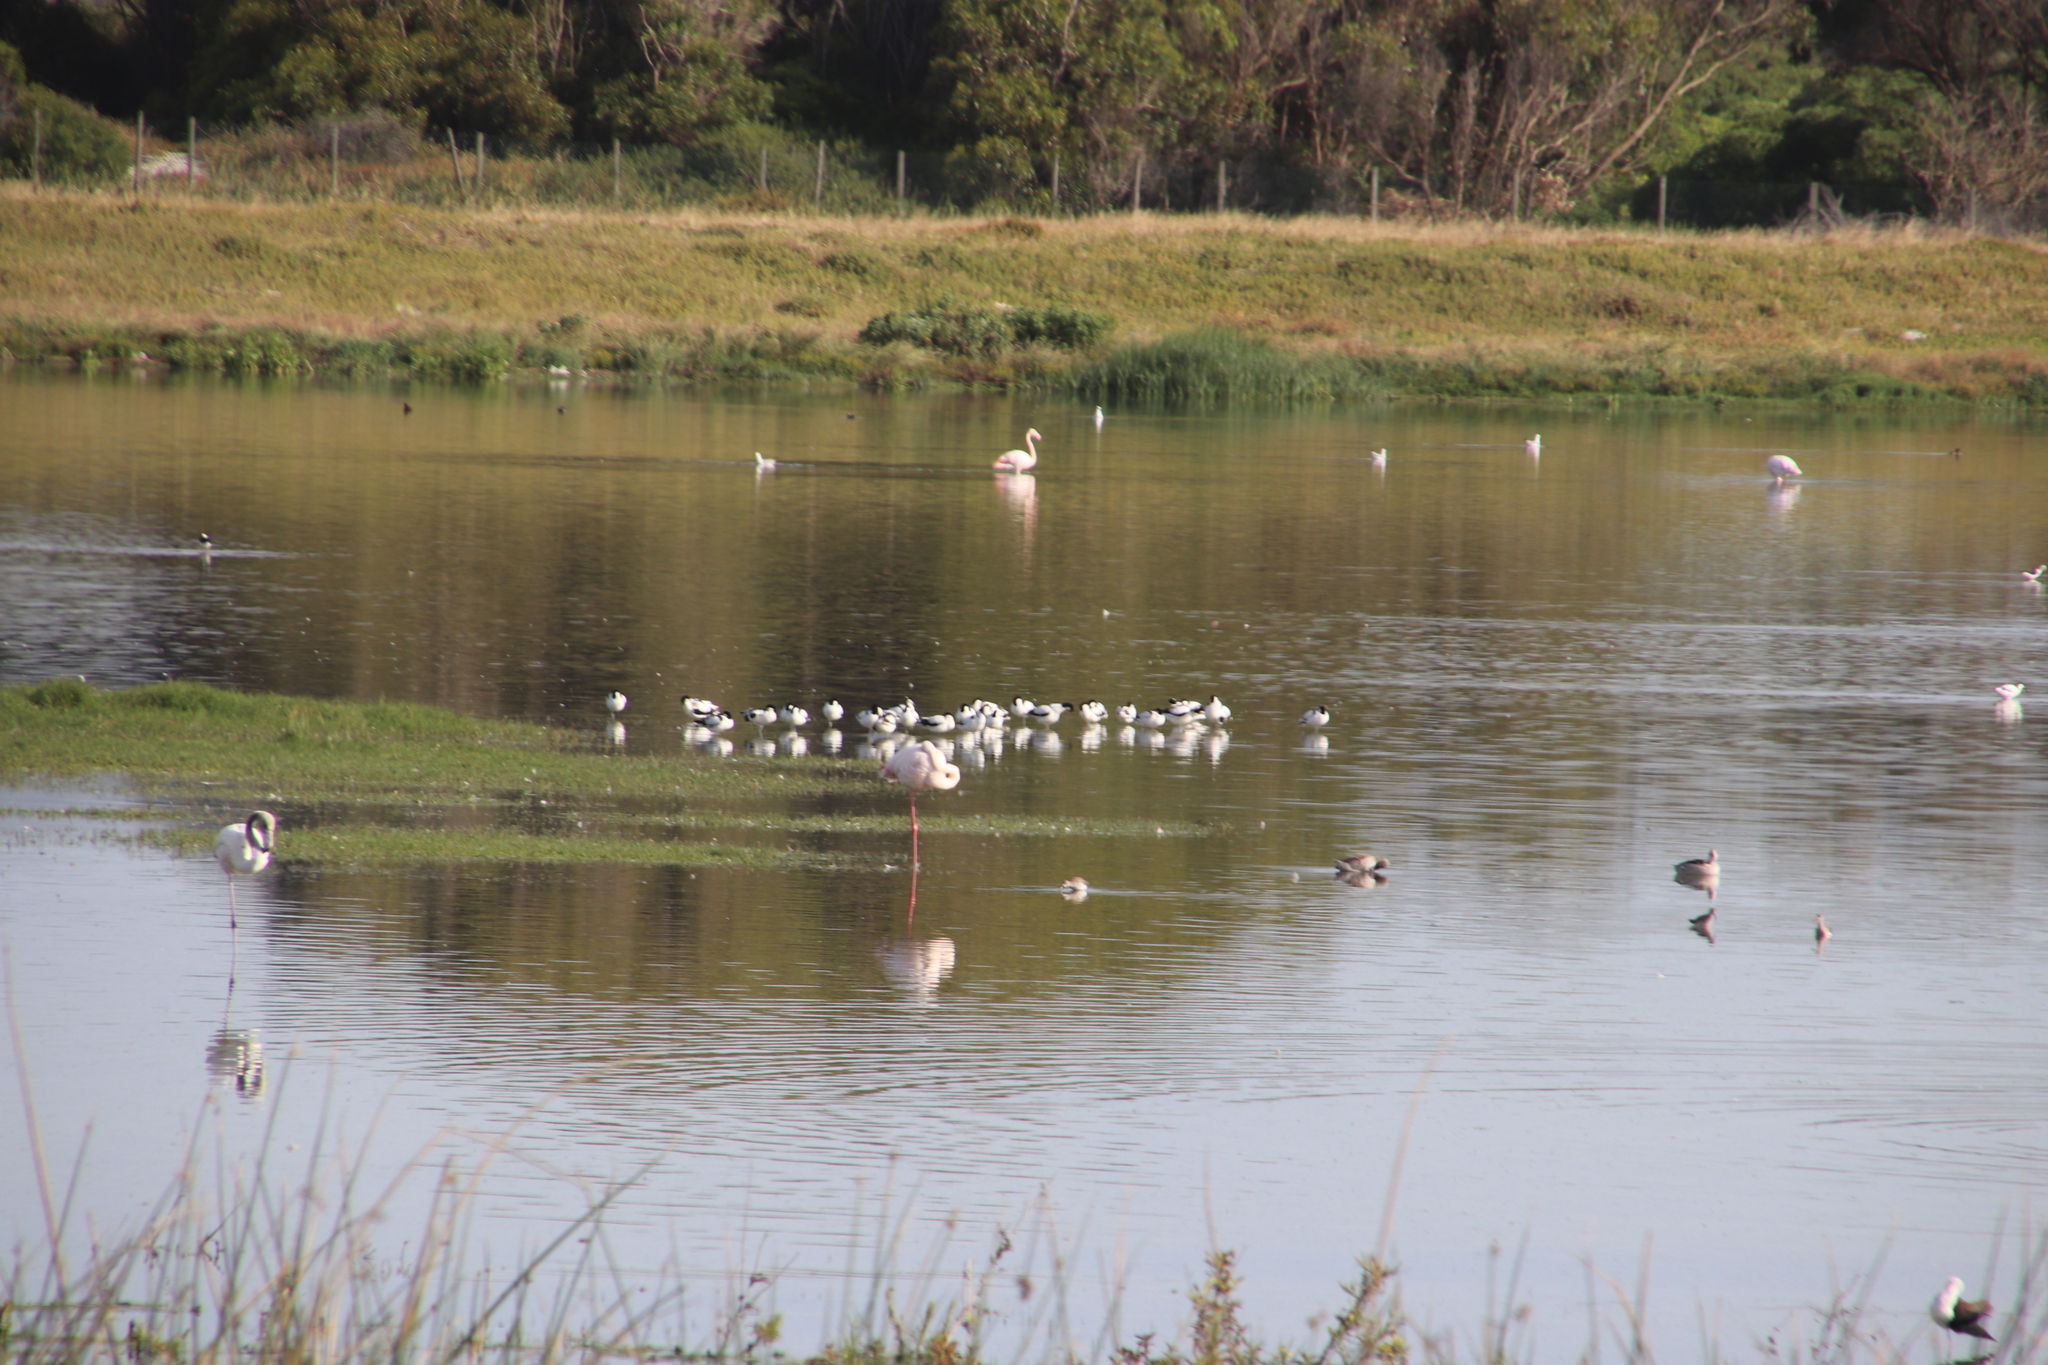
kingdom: Animalia
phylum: Chordata
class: Aves
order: Charadriiformes
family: Recurvirostridae
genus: Recurvirostra
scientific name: Recurvirostra avosetta
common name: Pied avocet
